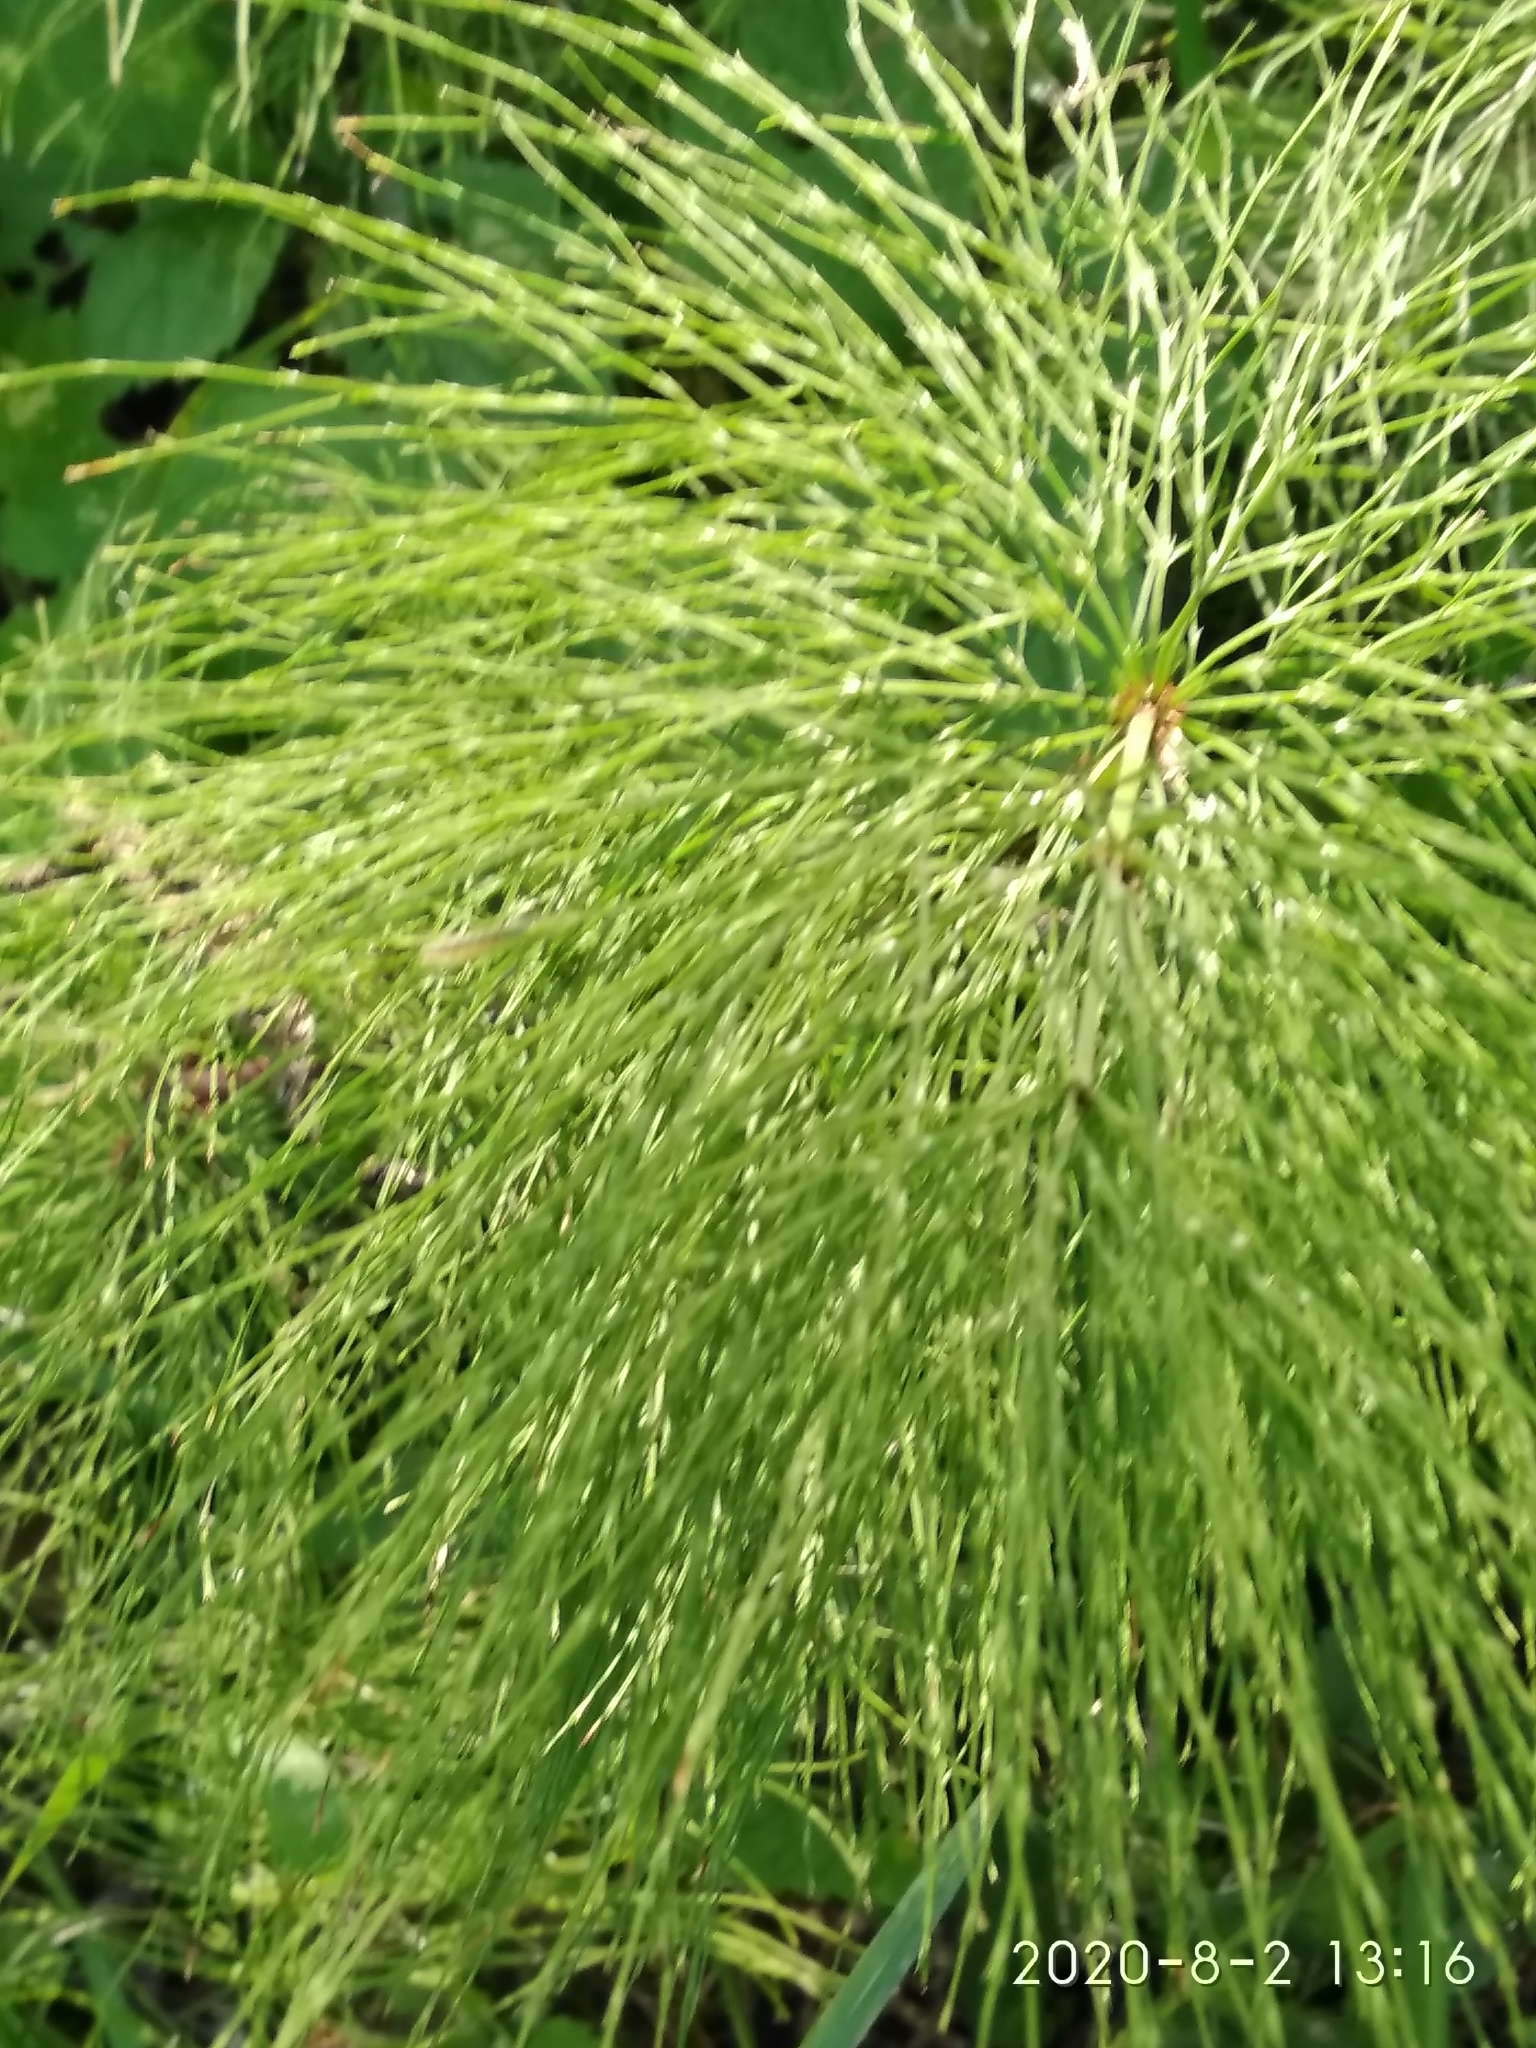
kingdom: Plantae
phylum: Tracheophyta
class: Polypodiopsida
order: Equisetales
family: Equisetaceae
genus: Equisetum
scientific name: Equisetum sylvaticum
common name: Wood horsetail
